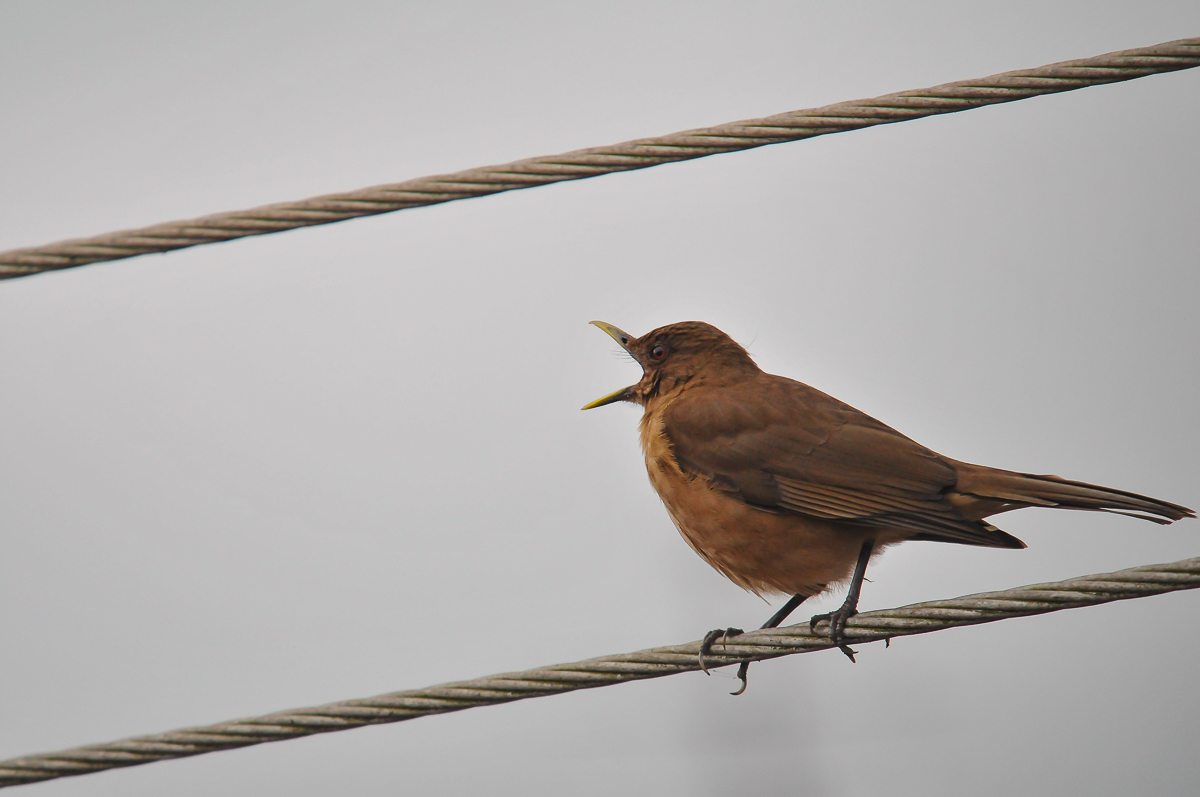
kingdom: Animalia
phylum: Chordata
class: Aves
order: Passeriformes
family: Turdidae
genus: Turdus
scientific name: Turdus grayi
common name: Clay-colored thrush
